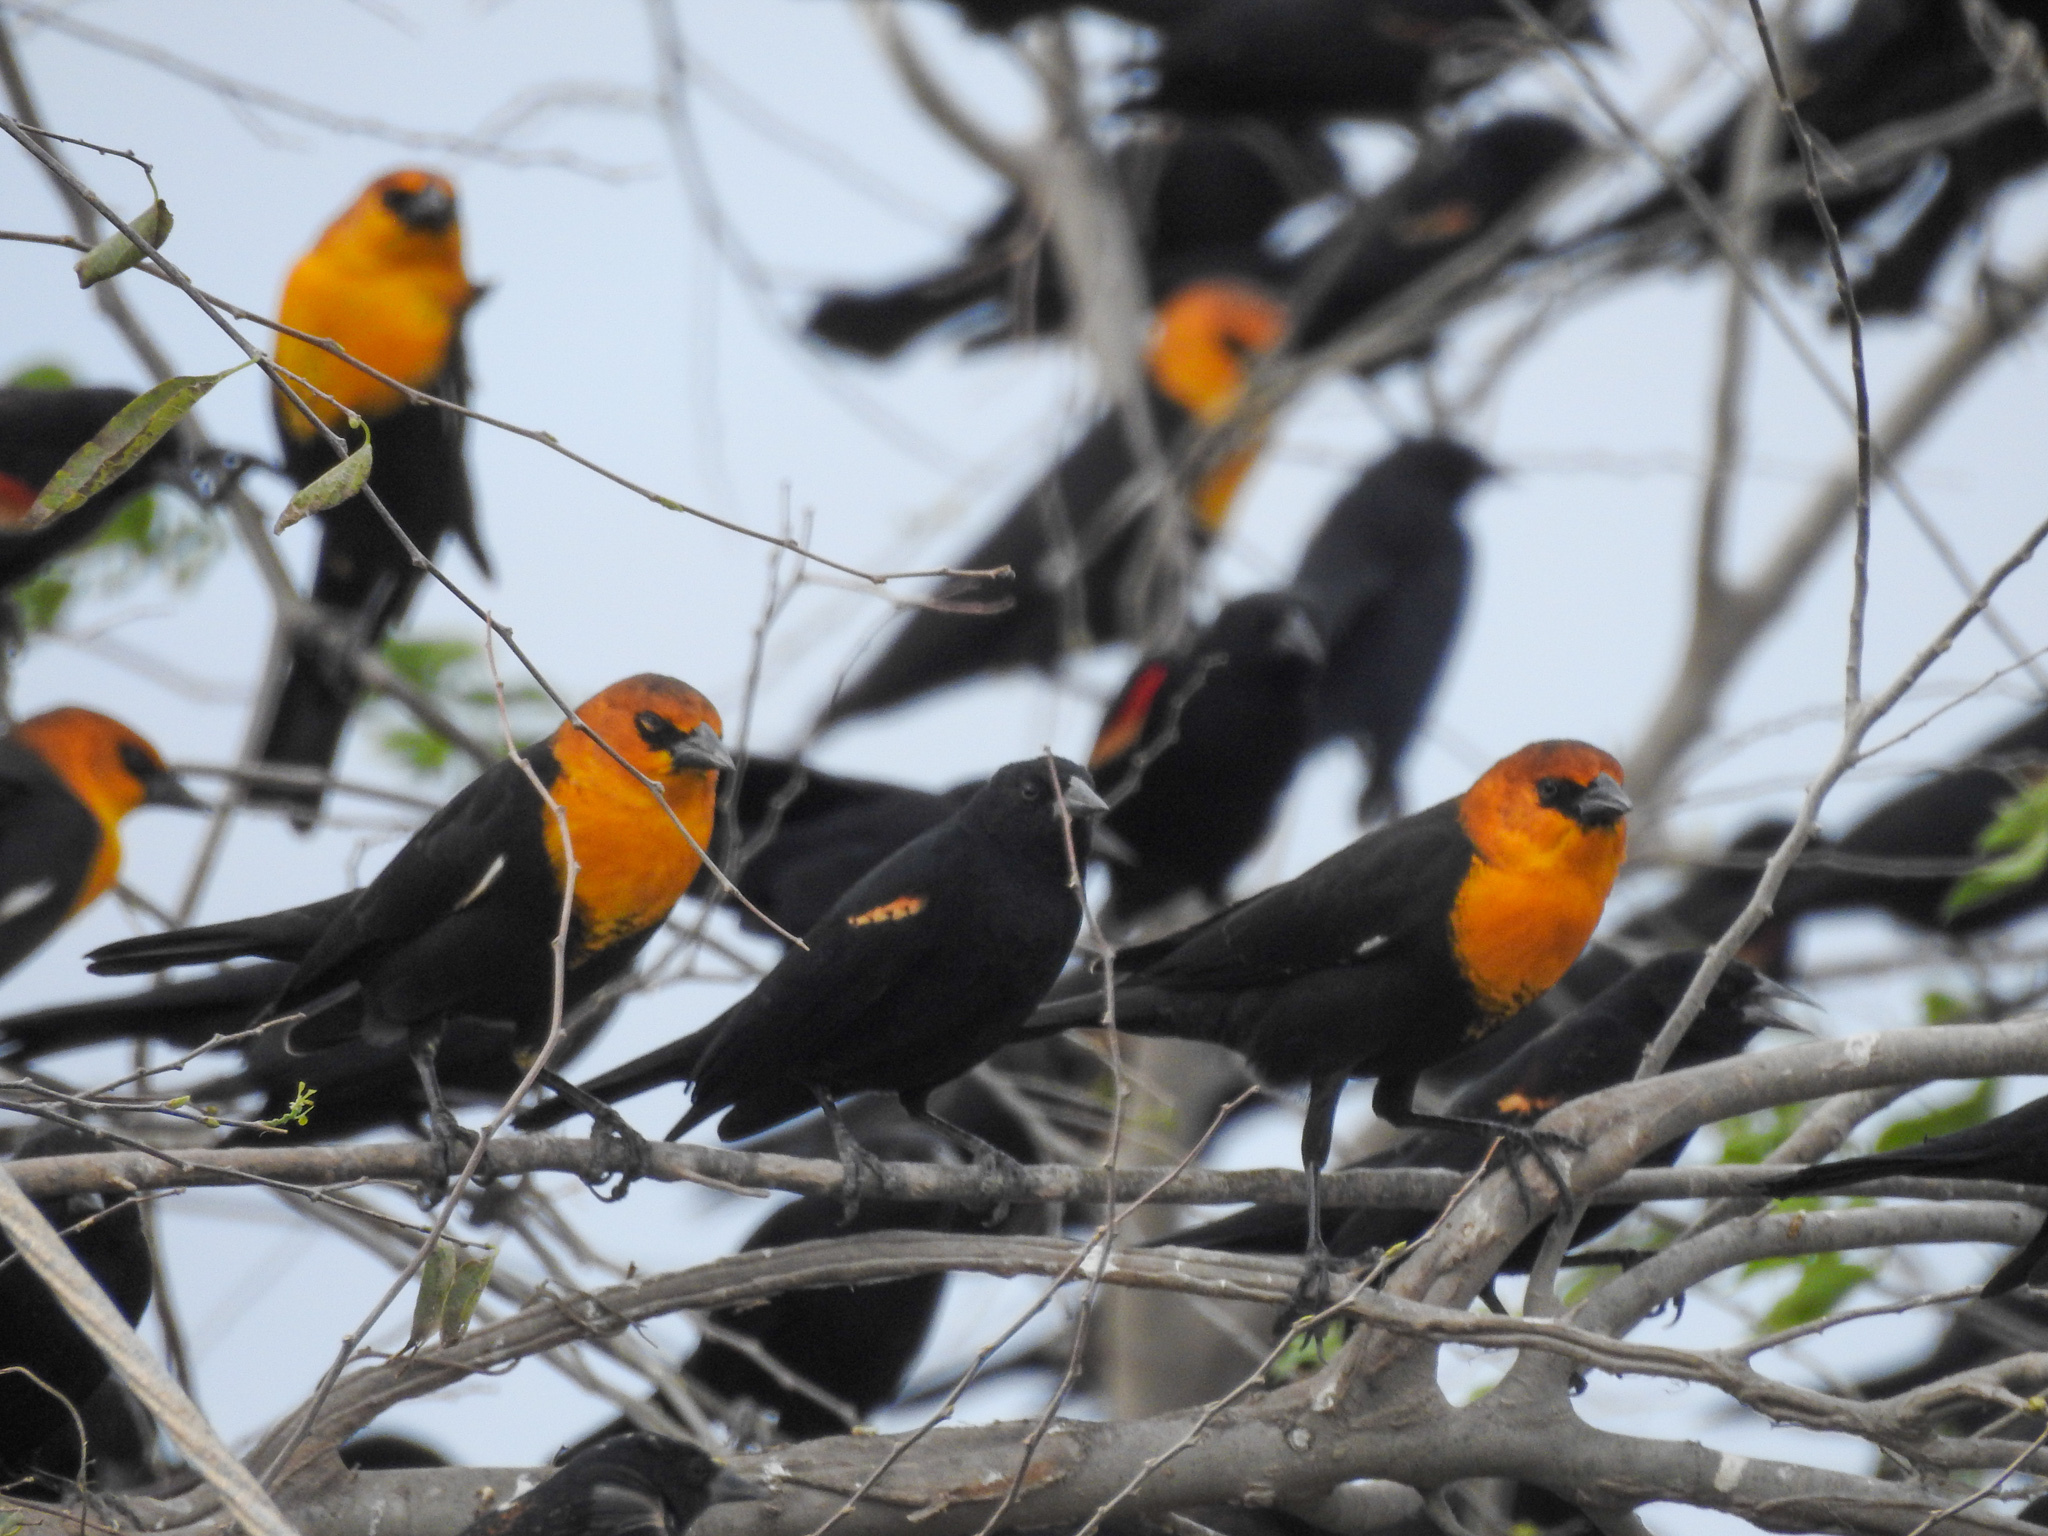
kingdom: Animalia
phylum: Chordata
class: Aves
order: Passeriformes
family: Icteridae
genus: Xanthocephalus
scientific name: Xanthocephalus xanthocephalus
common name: Yellow-headed blackbird
